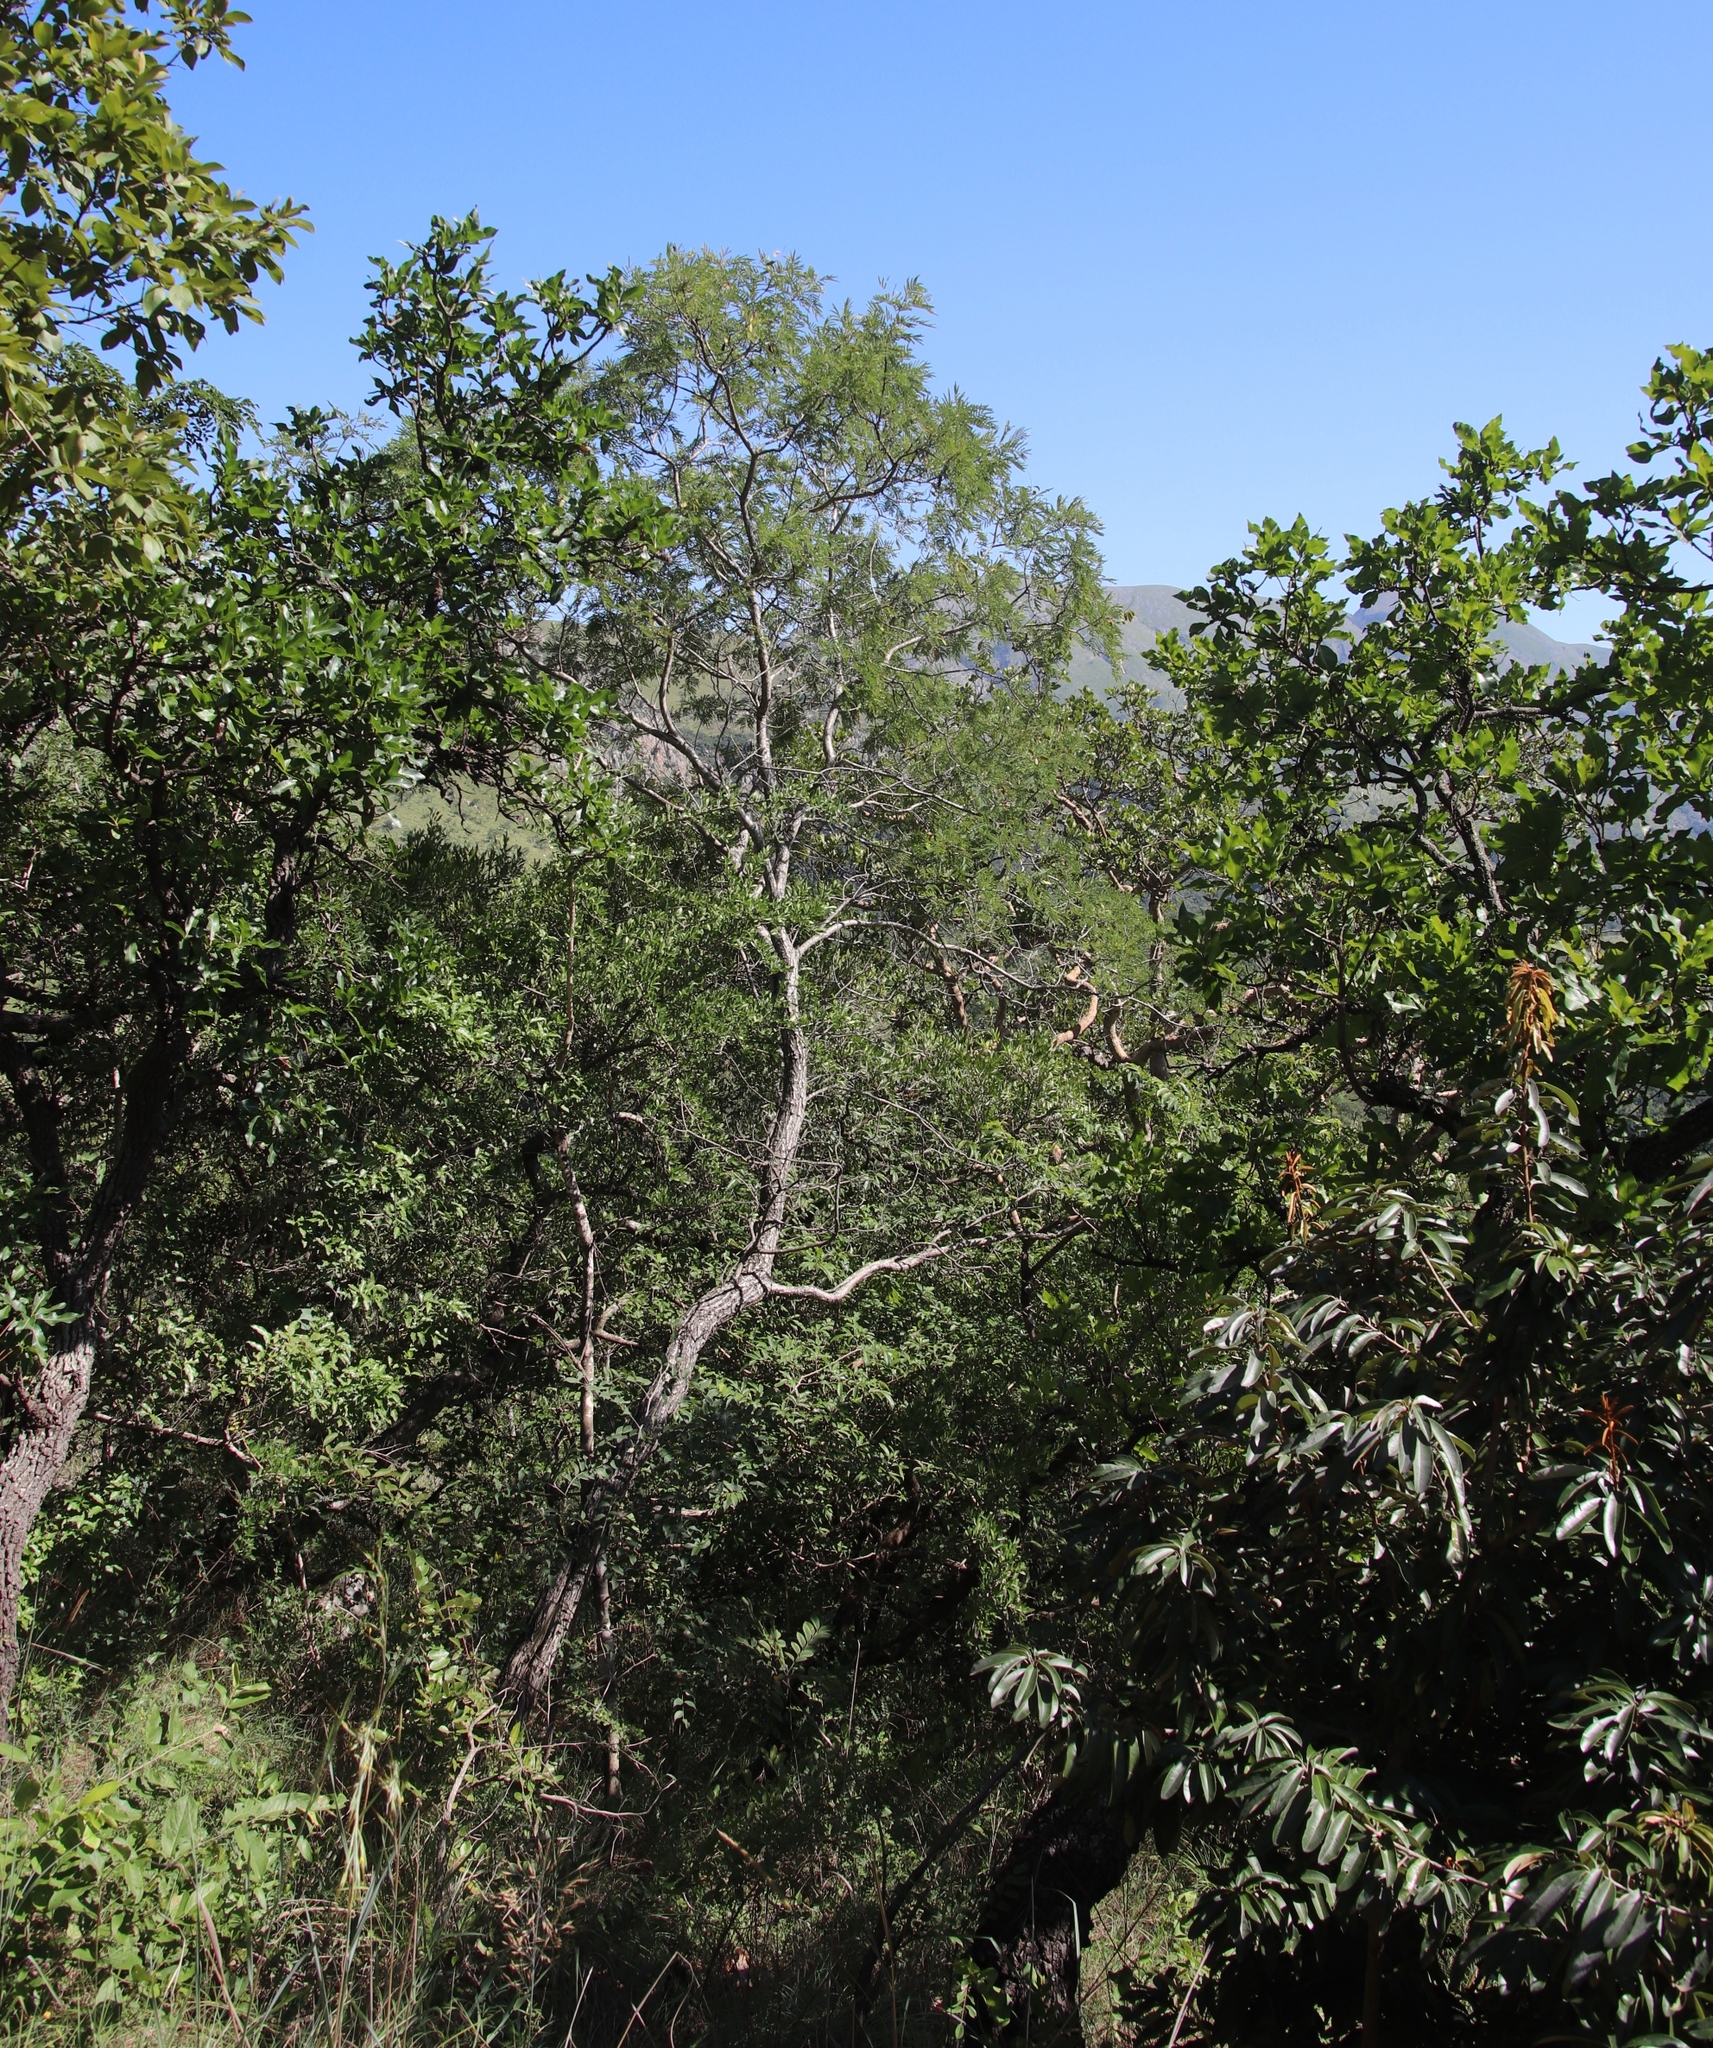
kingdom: Plantae
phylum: Tracheophyta
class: Magnoliopsida
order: Fabales
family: Fabaceae
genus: Peltophorum
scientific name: Peltophorum africanum
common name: African black wattle
